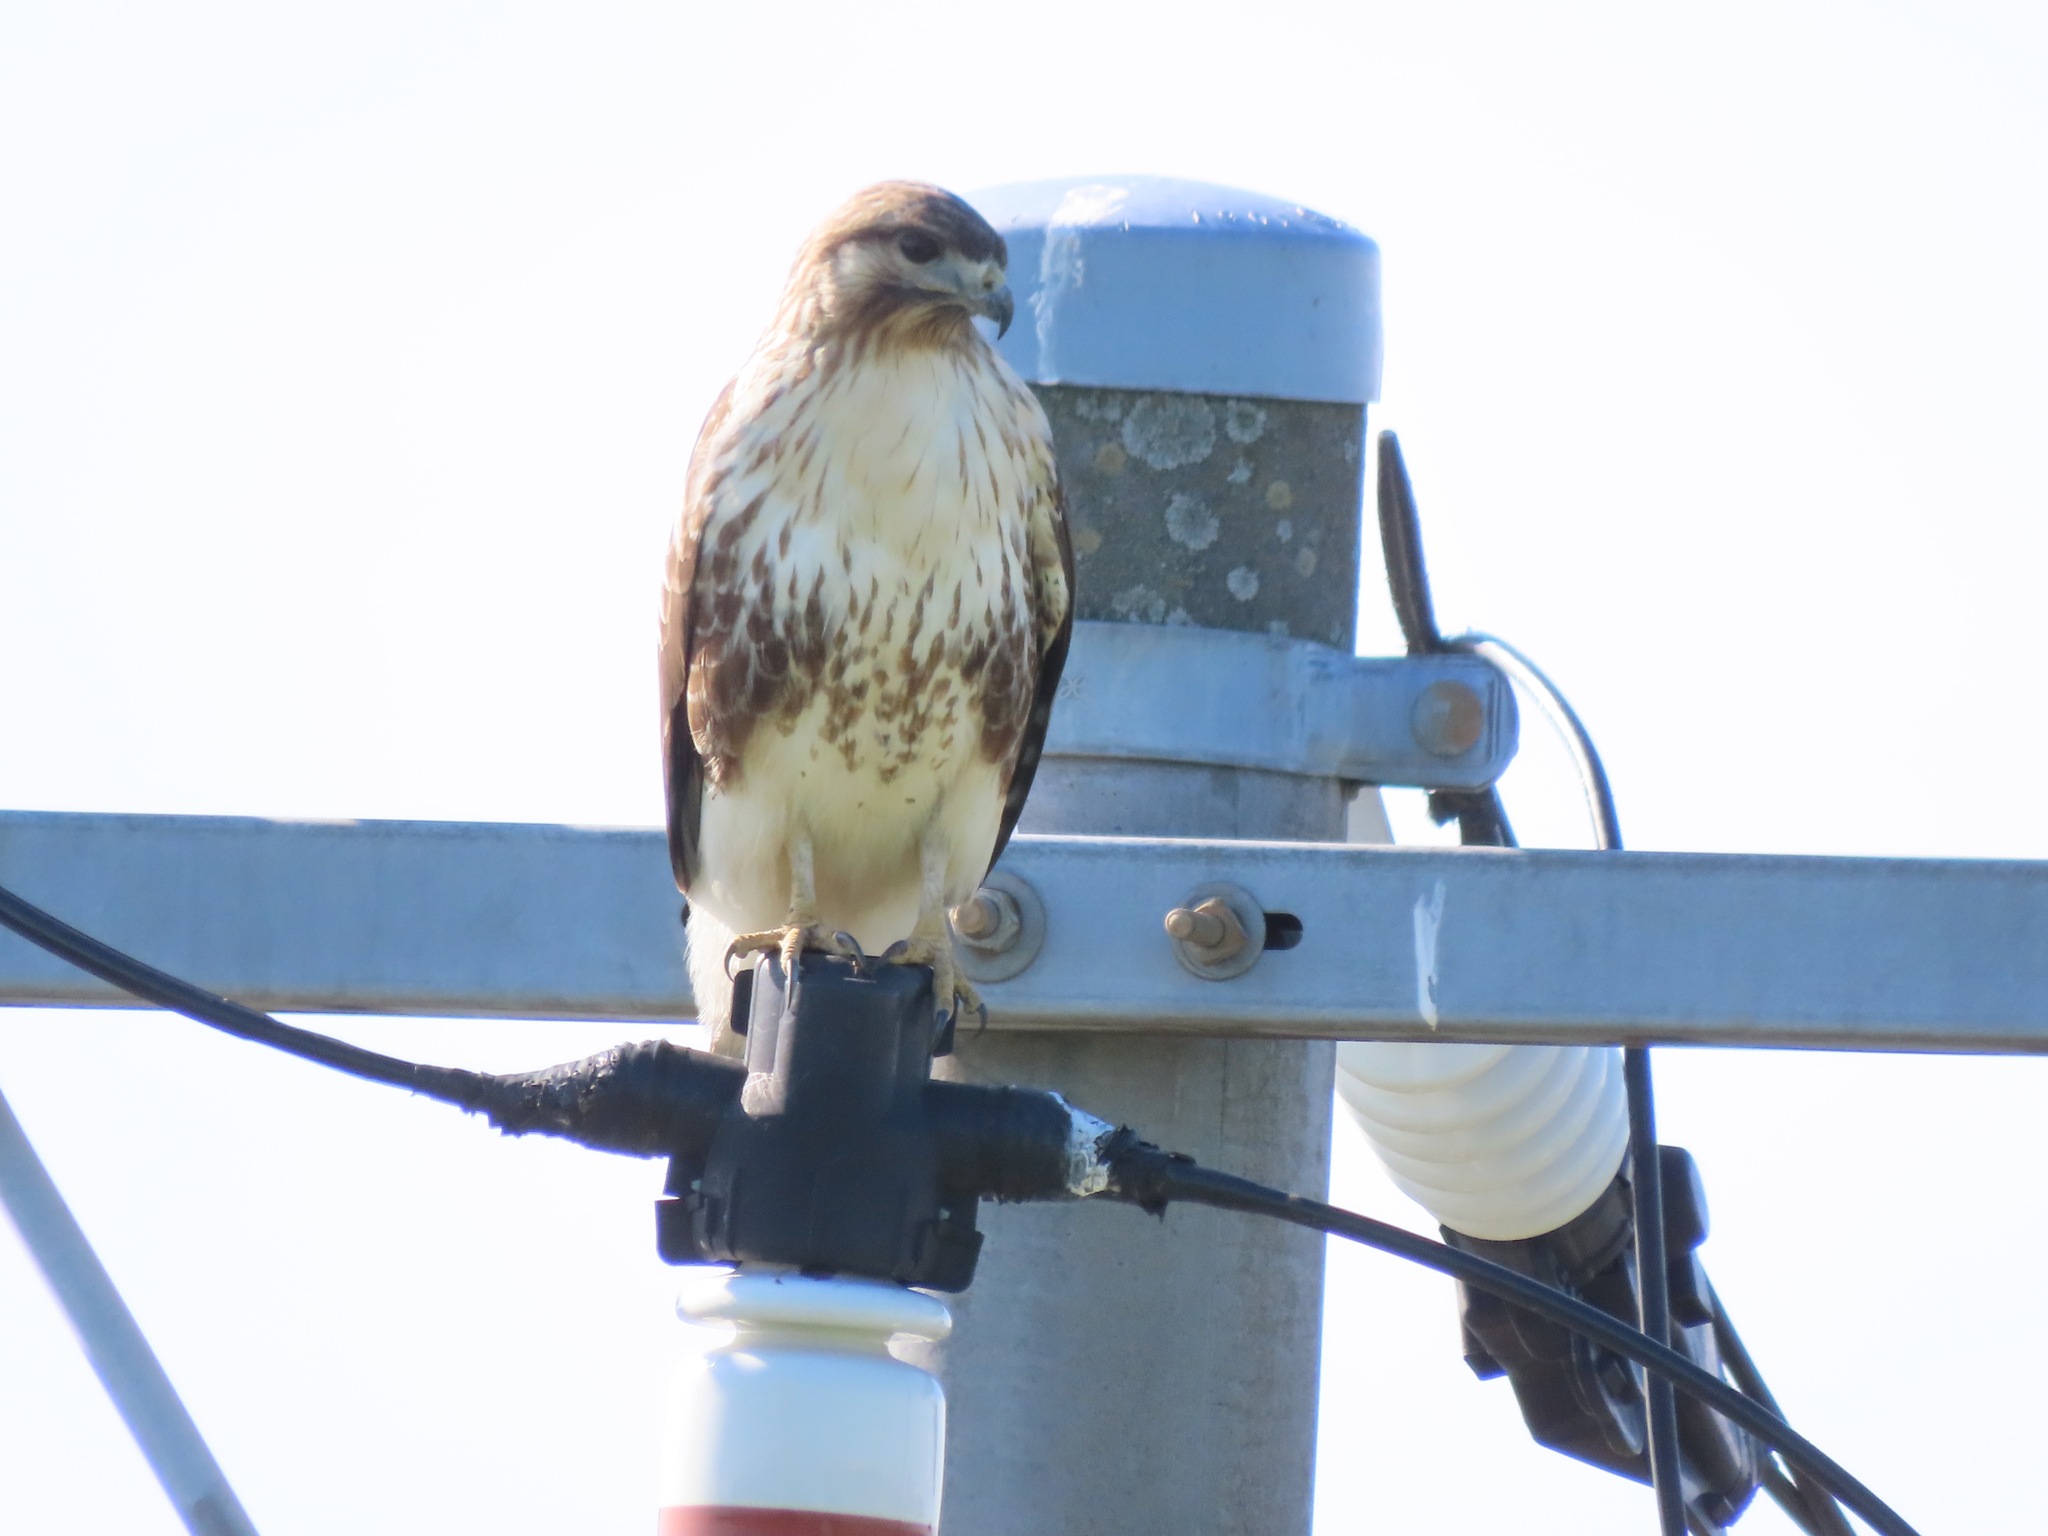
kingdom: Animalia
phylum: Chordata
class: Aves
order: Accipitriformes
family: Accipitridae
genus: Buteo
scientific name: Buteo japonicus
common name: Eastern buzzard
